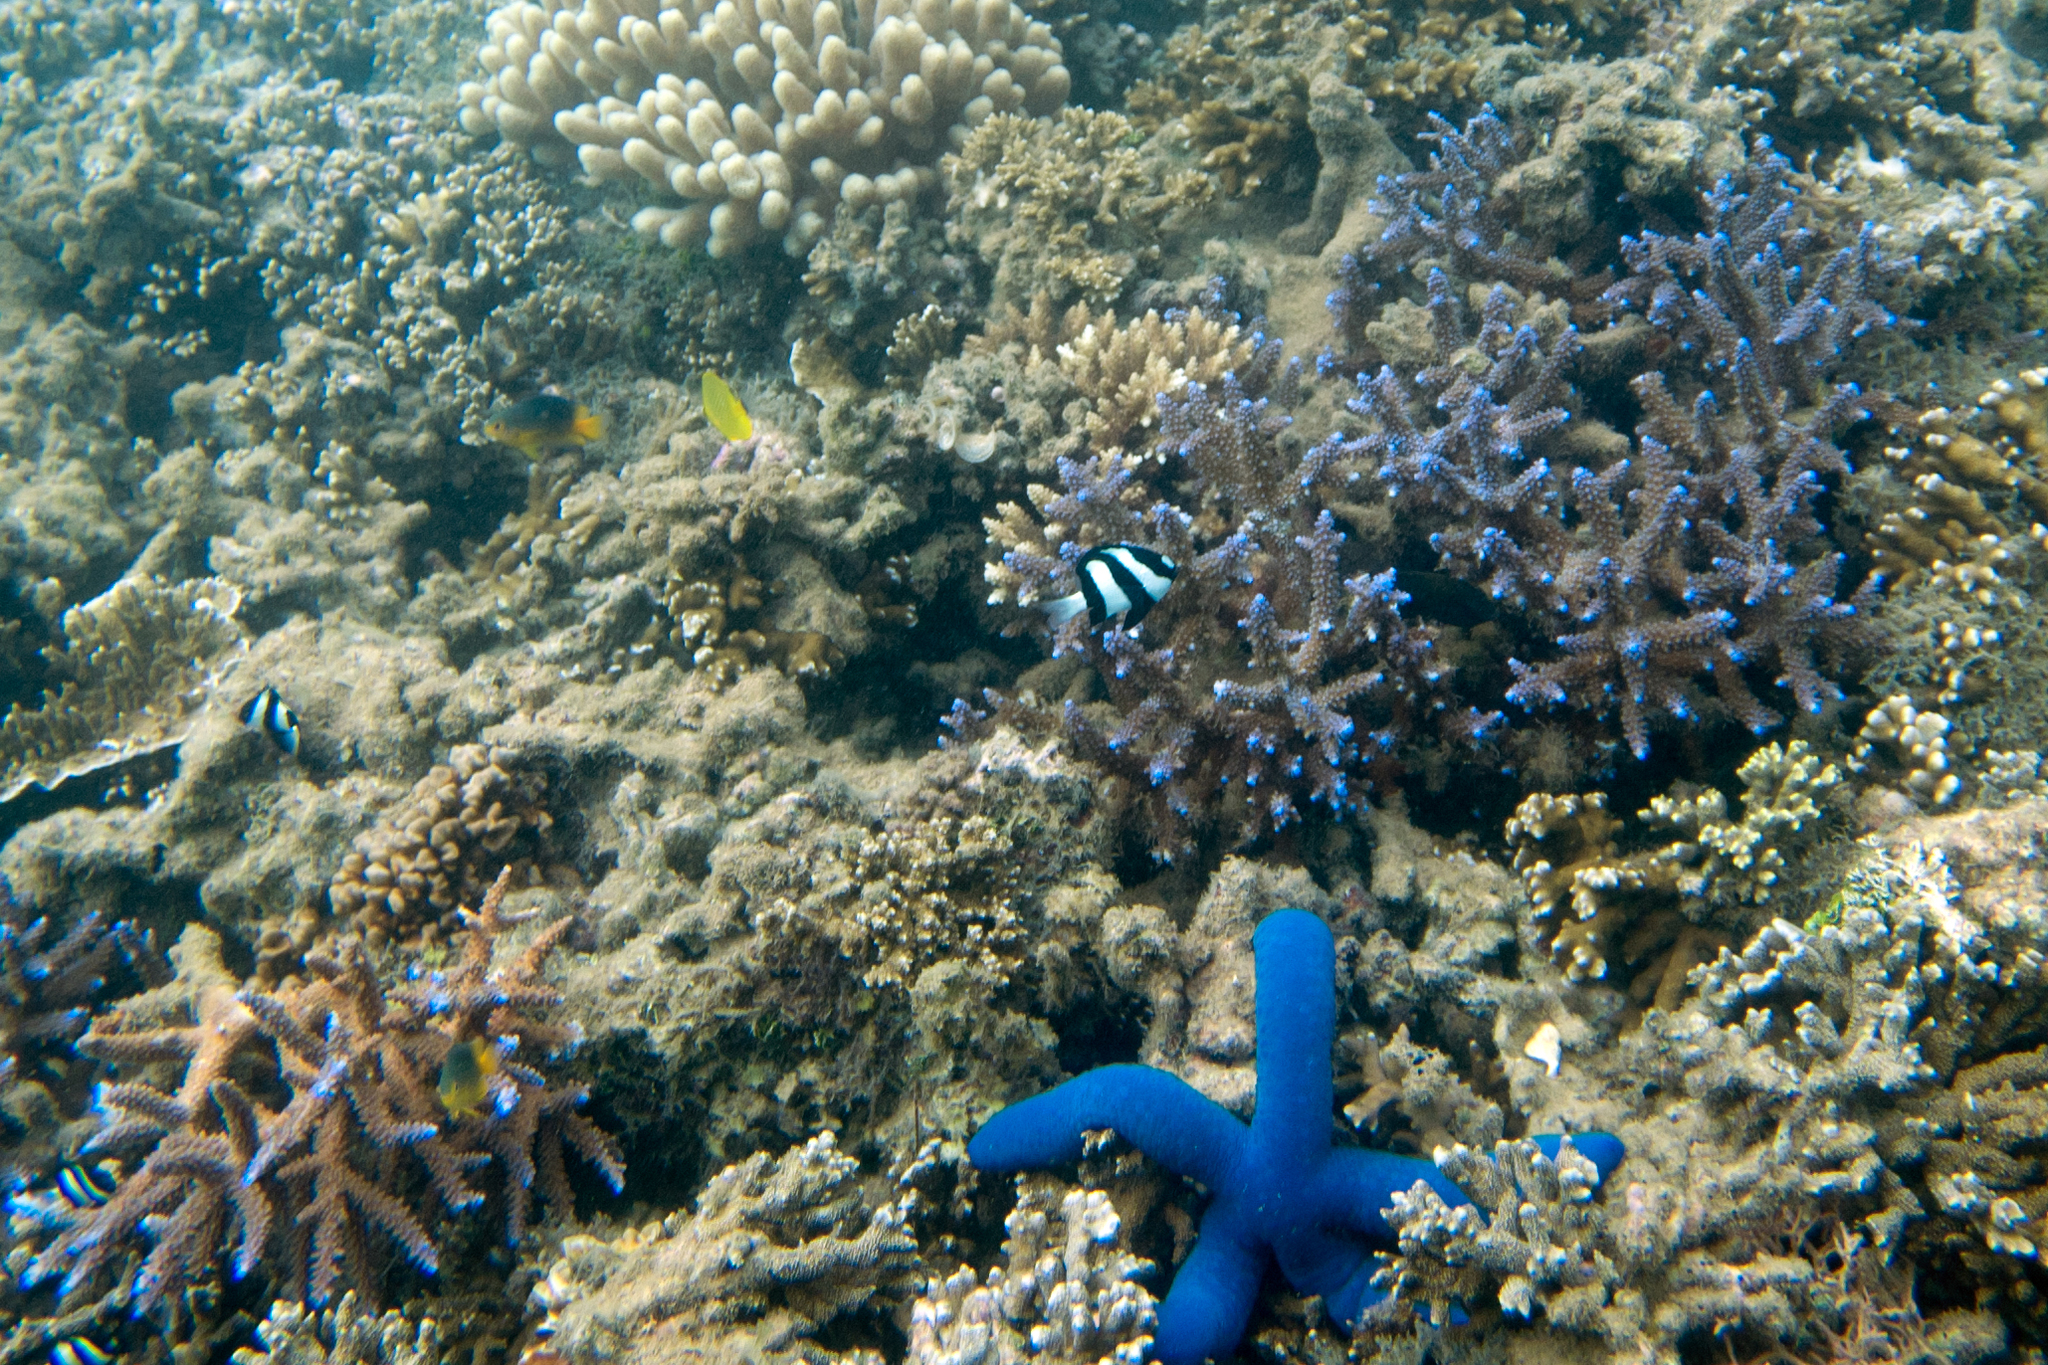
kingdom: Animalia
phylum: Echinodermata
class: Asteroidea
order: Valvatida
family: Ophidiasteridae
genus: Linckia
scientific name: Linckia laevigata
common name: Azure sea star
